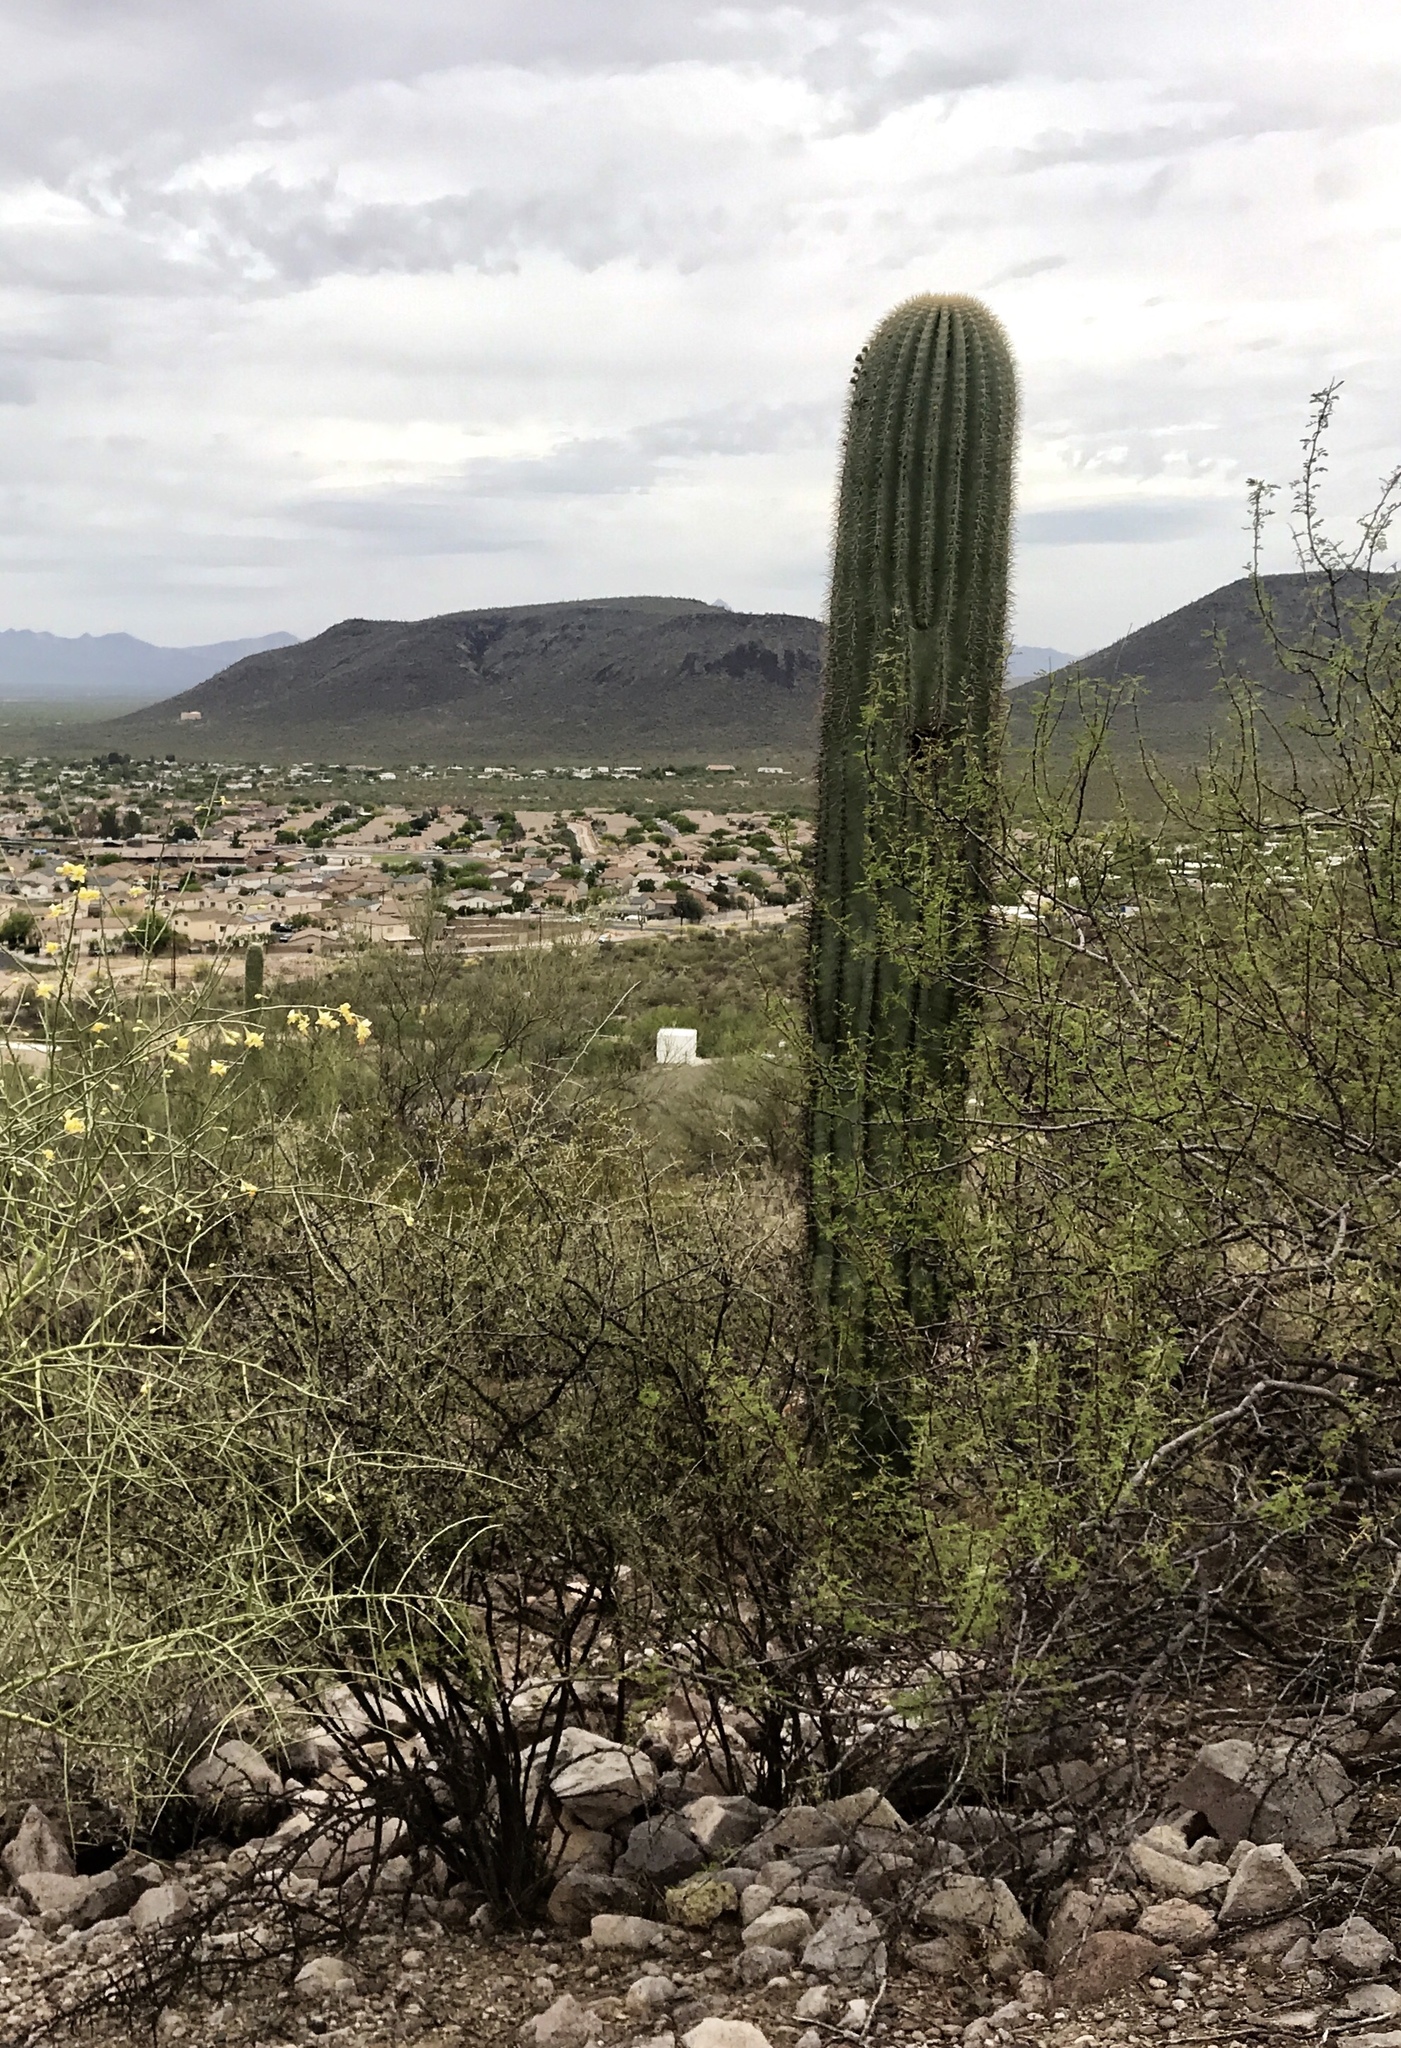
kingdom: Plantae
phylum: Tracheophyta
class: Magnoliopsida
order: Caryophyllales
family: Cactaceae
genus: Carnegiea
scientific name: Carnegiea gigantea
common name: Saguaro
